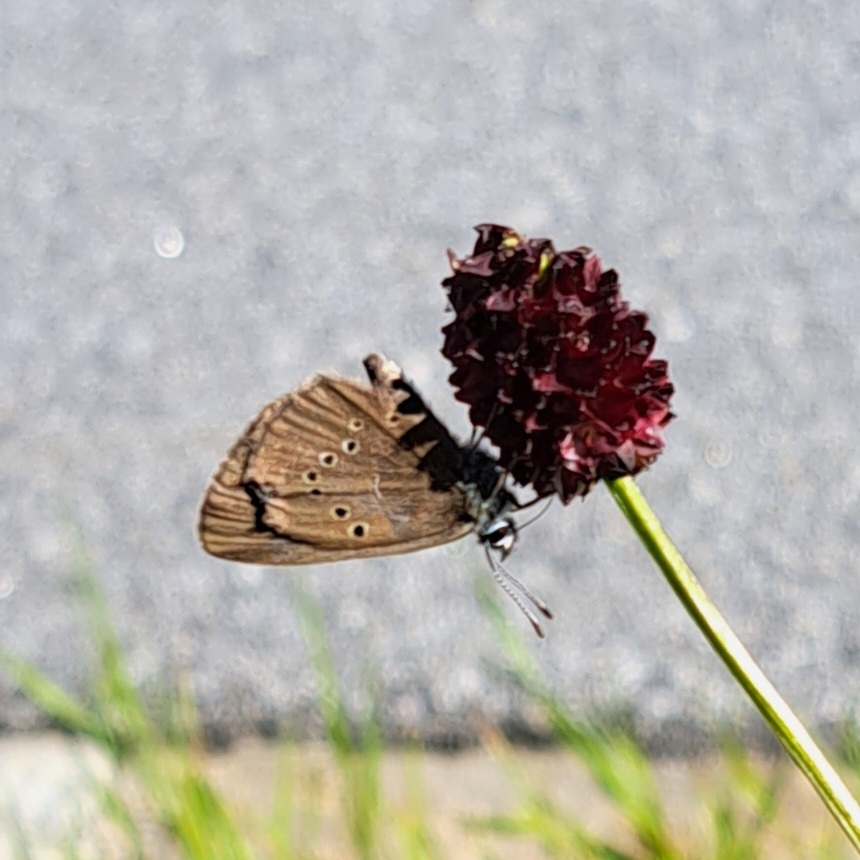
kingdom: Animalia
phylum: Arthropoda
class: Insecta
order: Lepidoptera
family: Lycaenidae
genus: Maculinea
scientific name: Maculinea nausithous
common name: Dusky large blue
